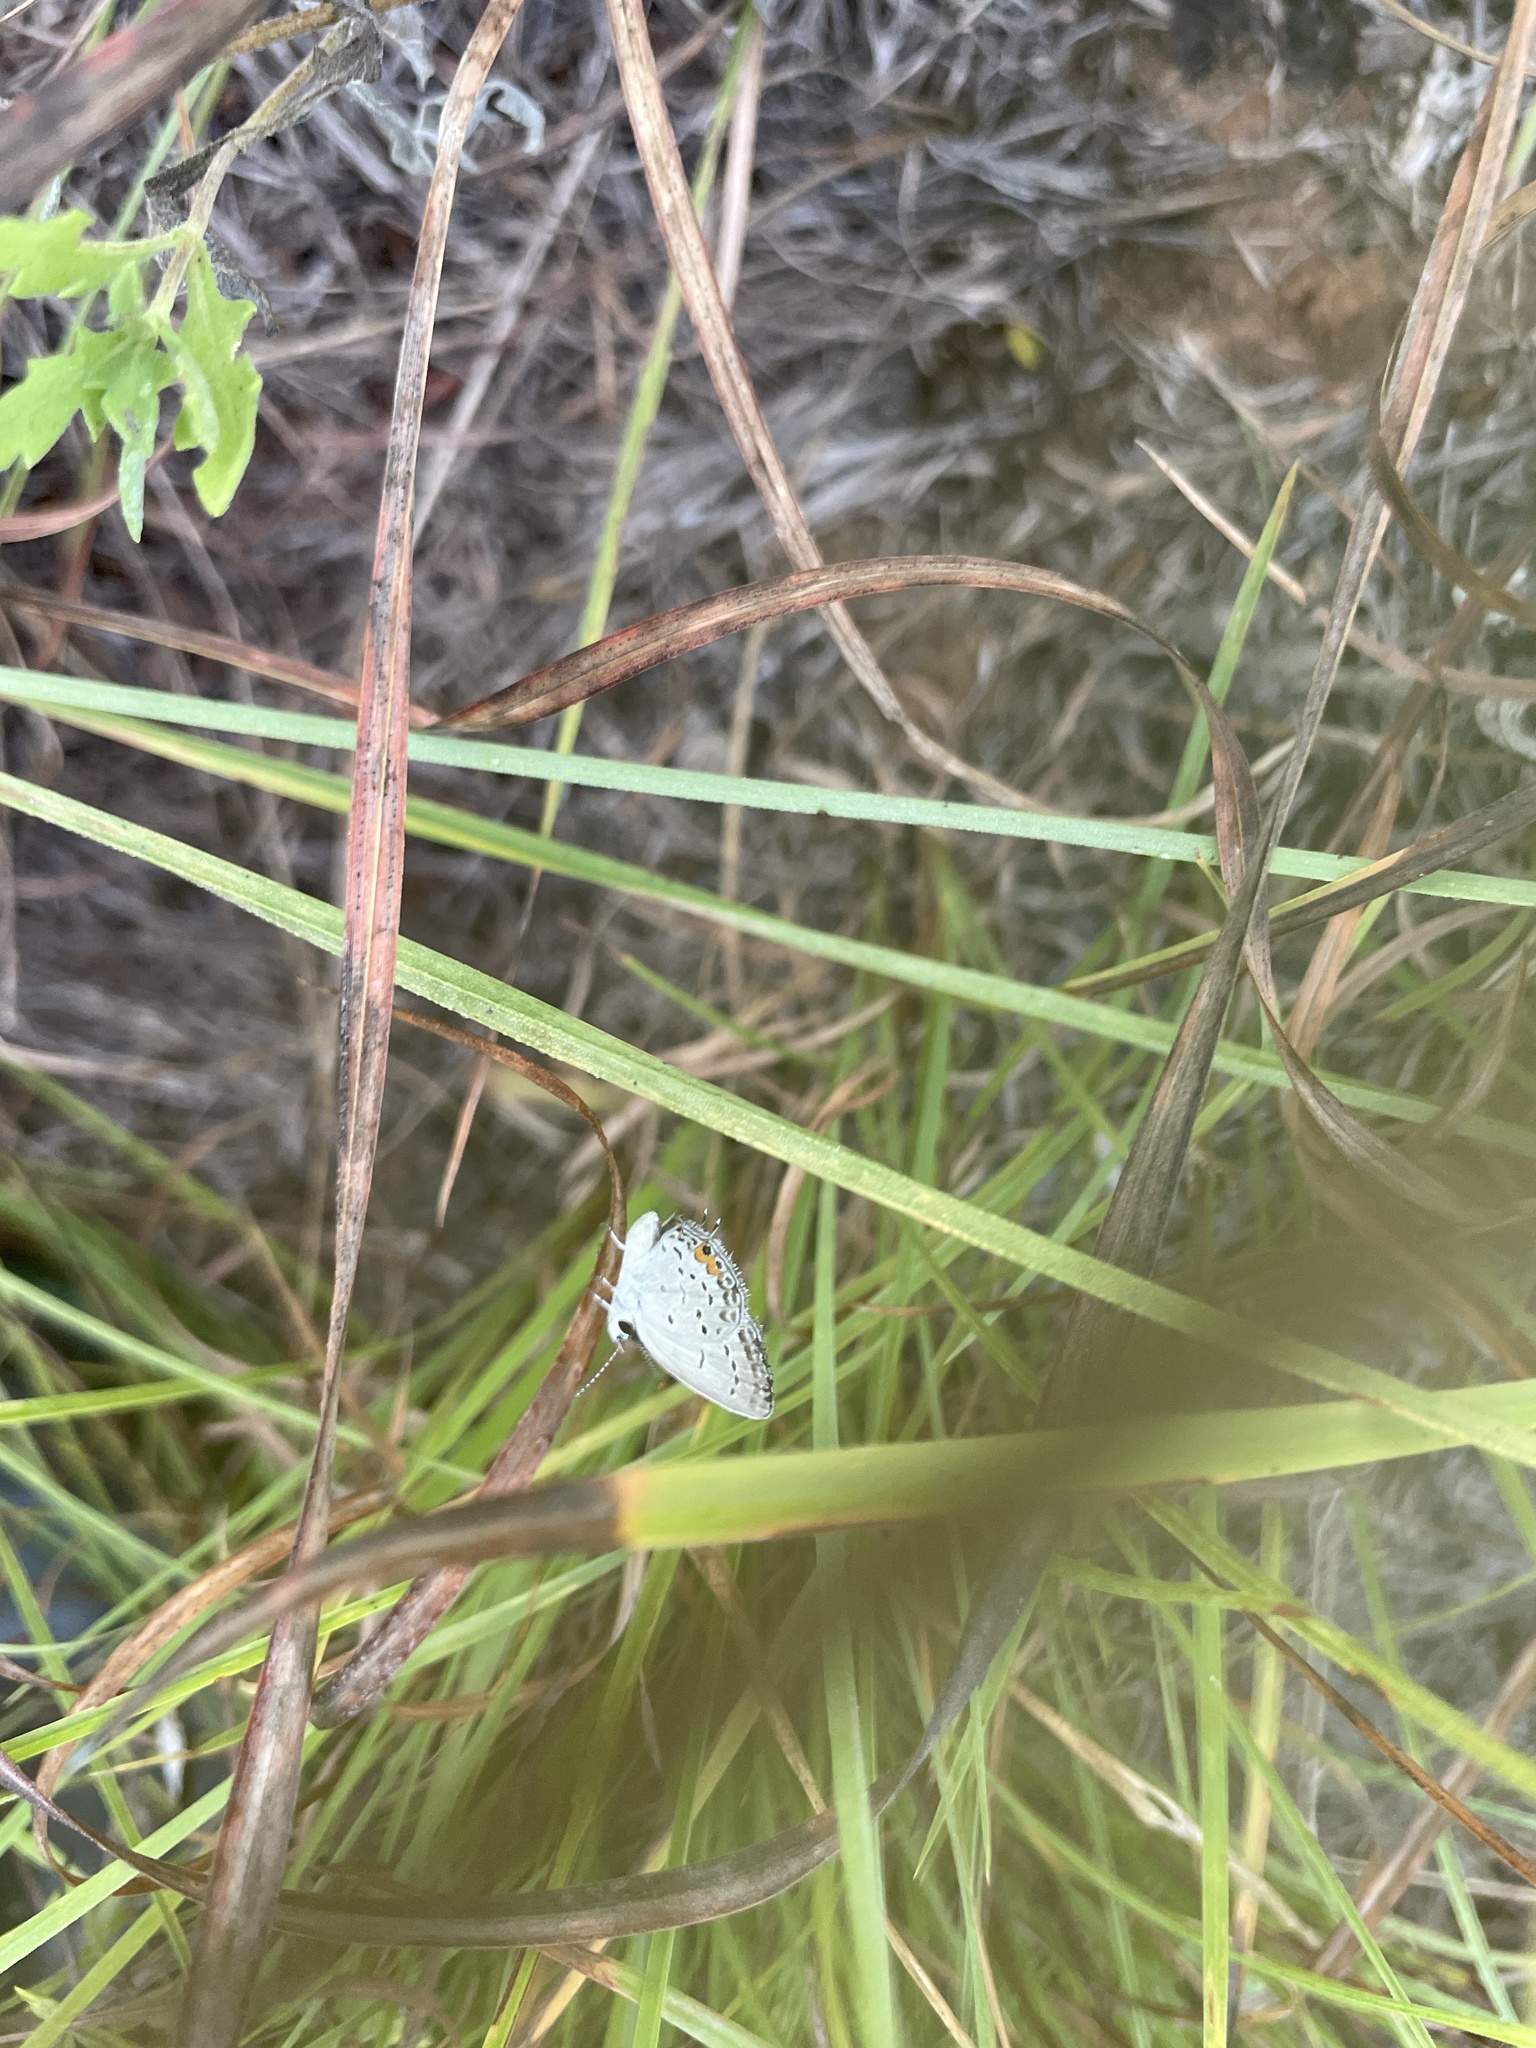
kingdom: Animalia
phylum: Arthropoda
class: Insecta
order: Lepidoptera
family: Lycaenidae
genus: Elkalyce
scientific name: Elkalyce comyntas
